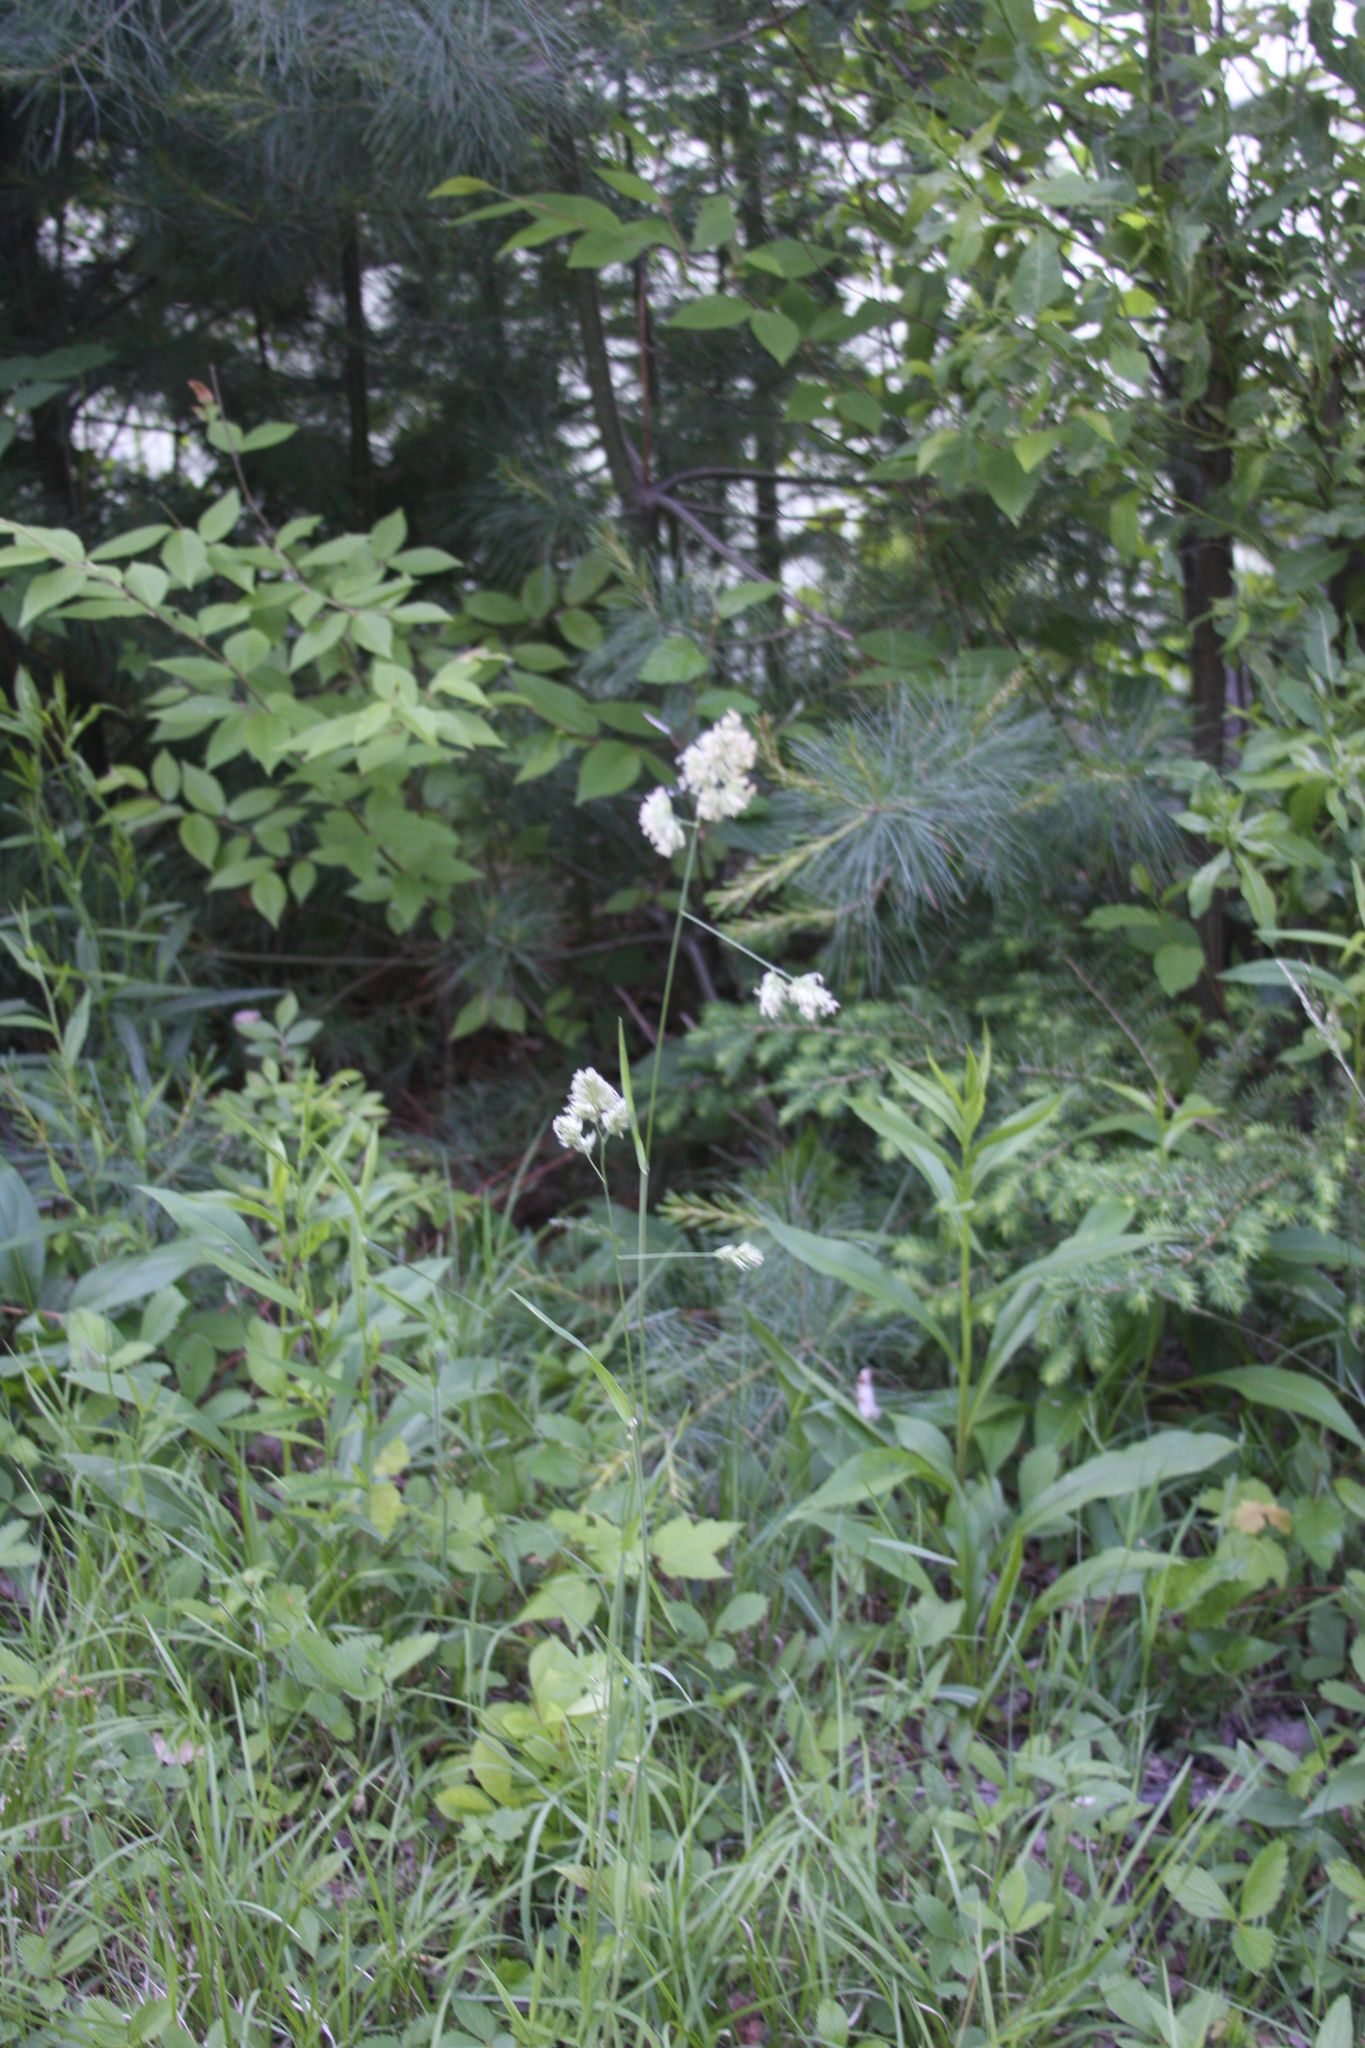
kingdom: Plantae
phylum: Tracheophyta
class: Liliopsida
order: Poales
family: Poaceae
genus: Dactylis
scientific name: Dactylis glomerata
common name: Orchardgrass
